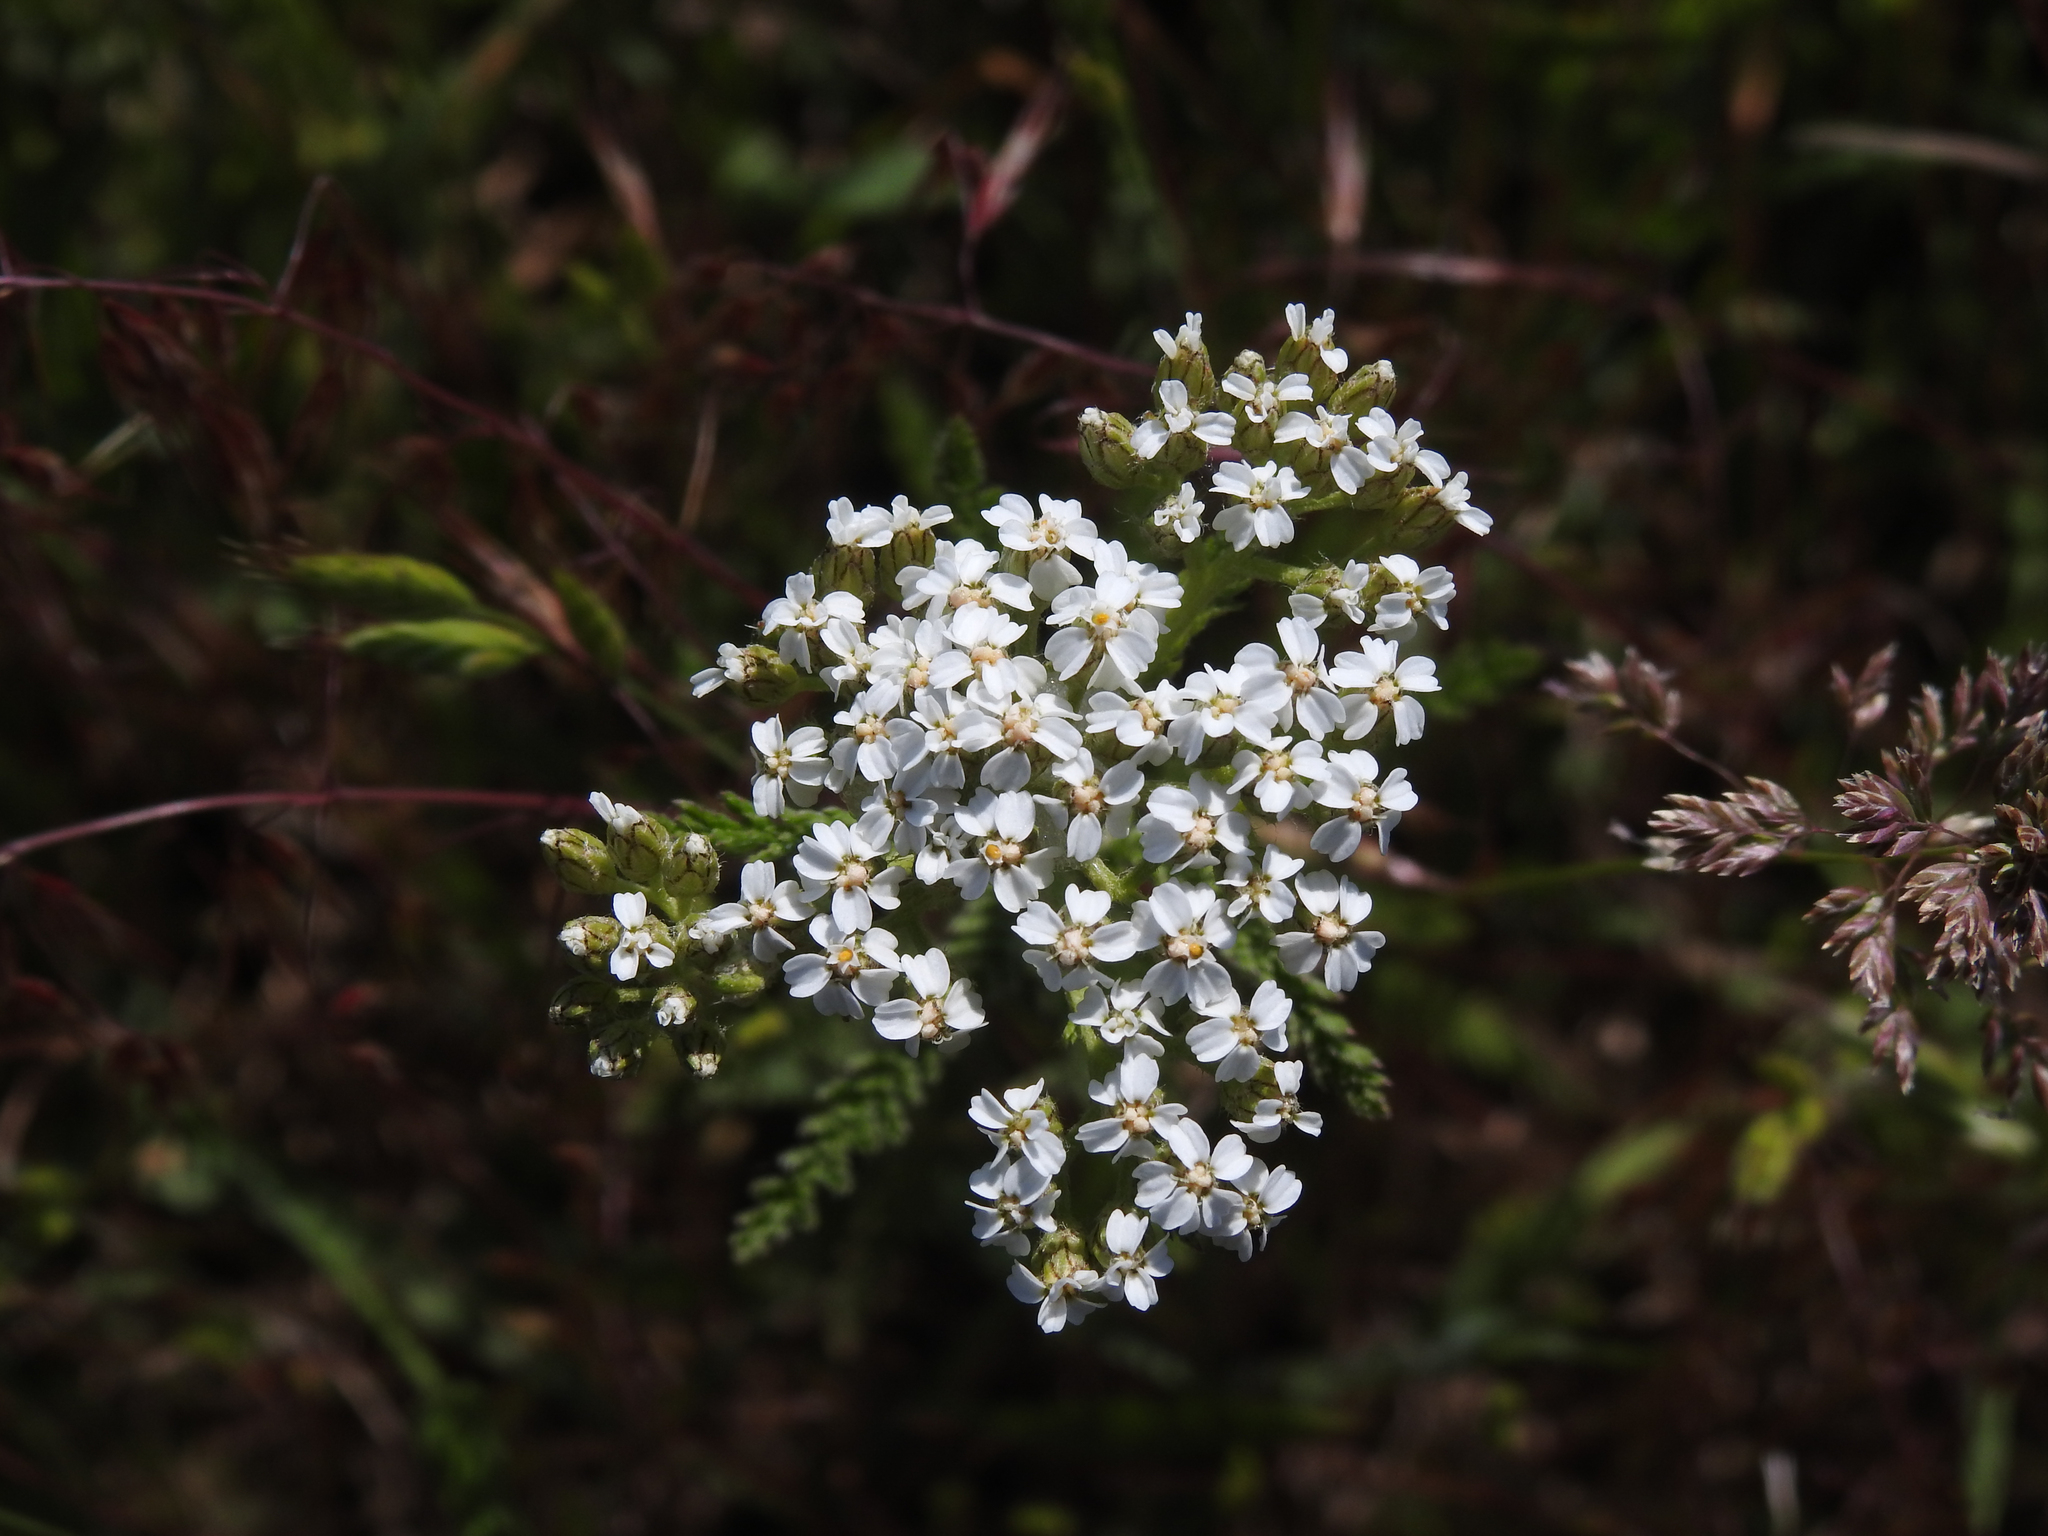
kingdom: Plantae
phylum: Tracheophyta
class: Magnoliopsida
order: Asterales
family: Asteraceae
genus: Achillea
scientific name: Achillea millefolium
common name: Yarrow
